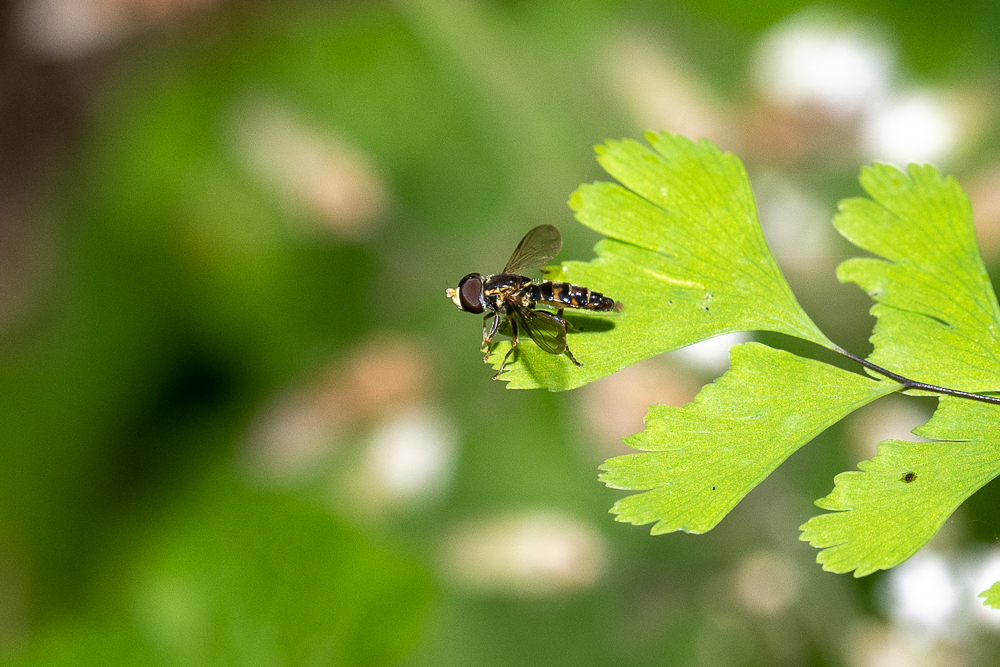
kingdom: Animalia
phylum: Arthropoda
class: Insecta
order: Diptera
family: Syrphidae
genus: Toxomerus
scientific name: Toxomerus occidentalis
